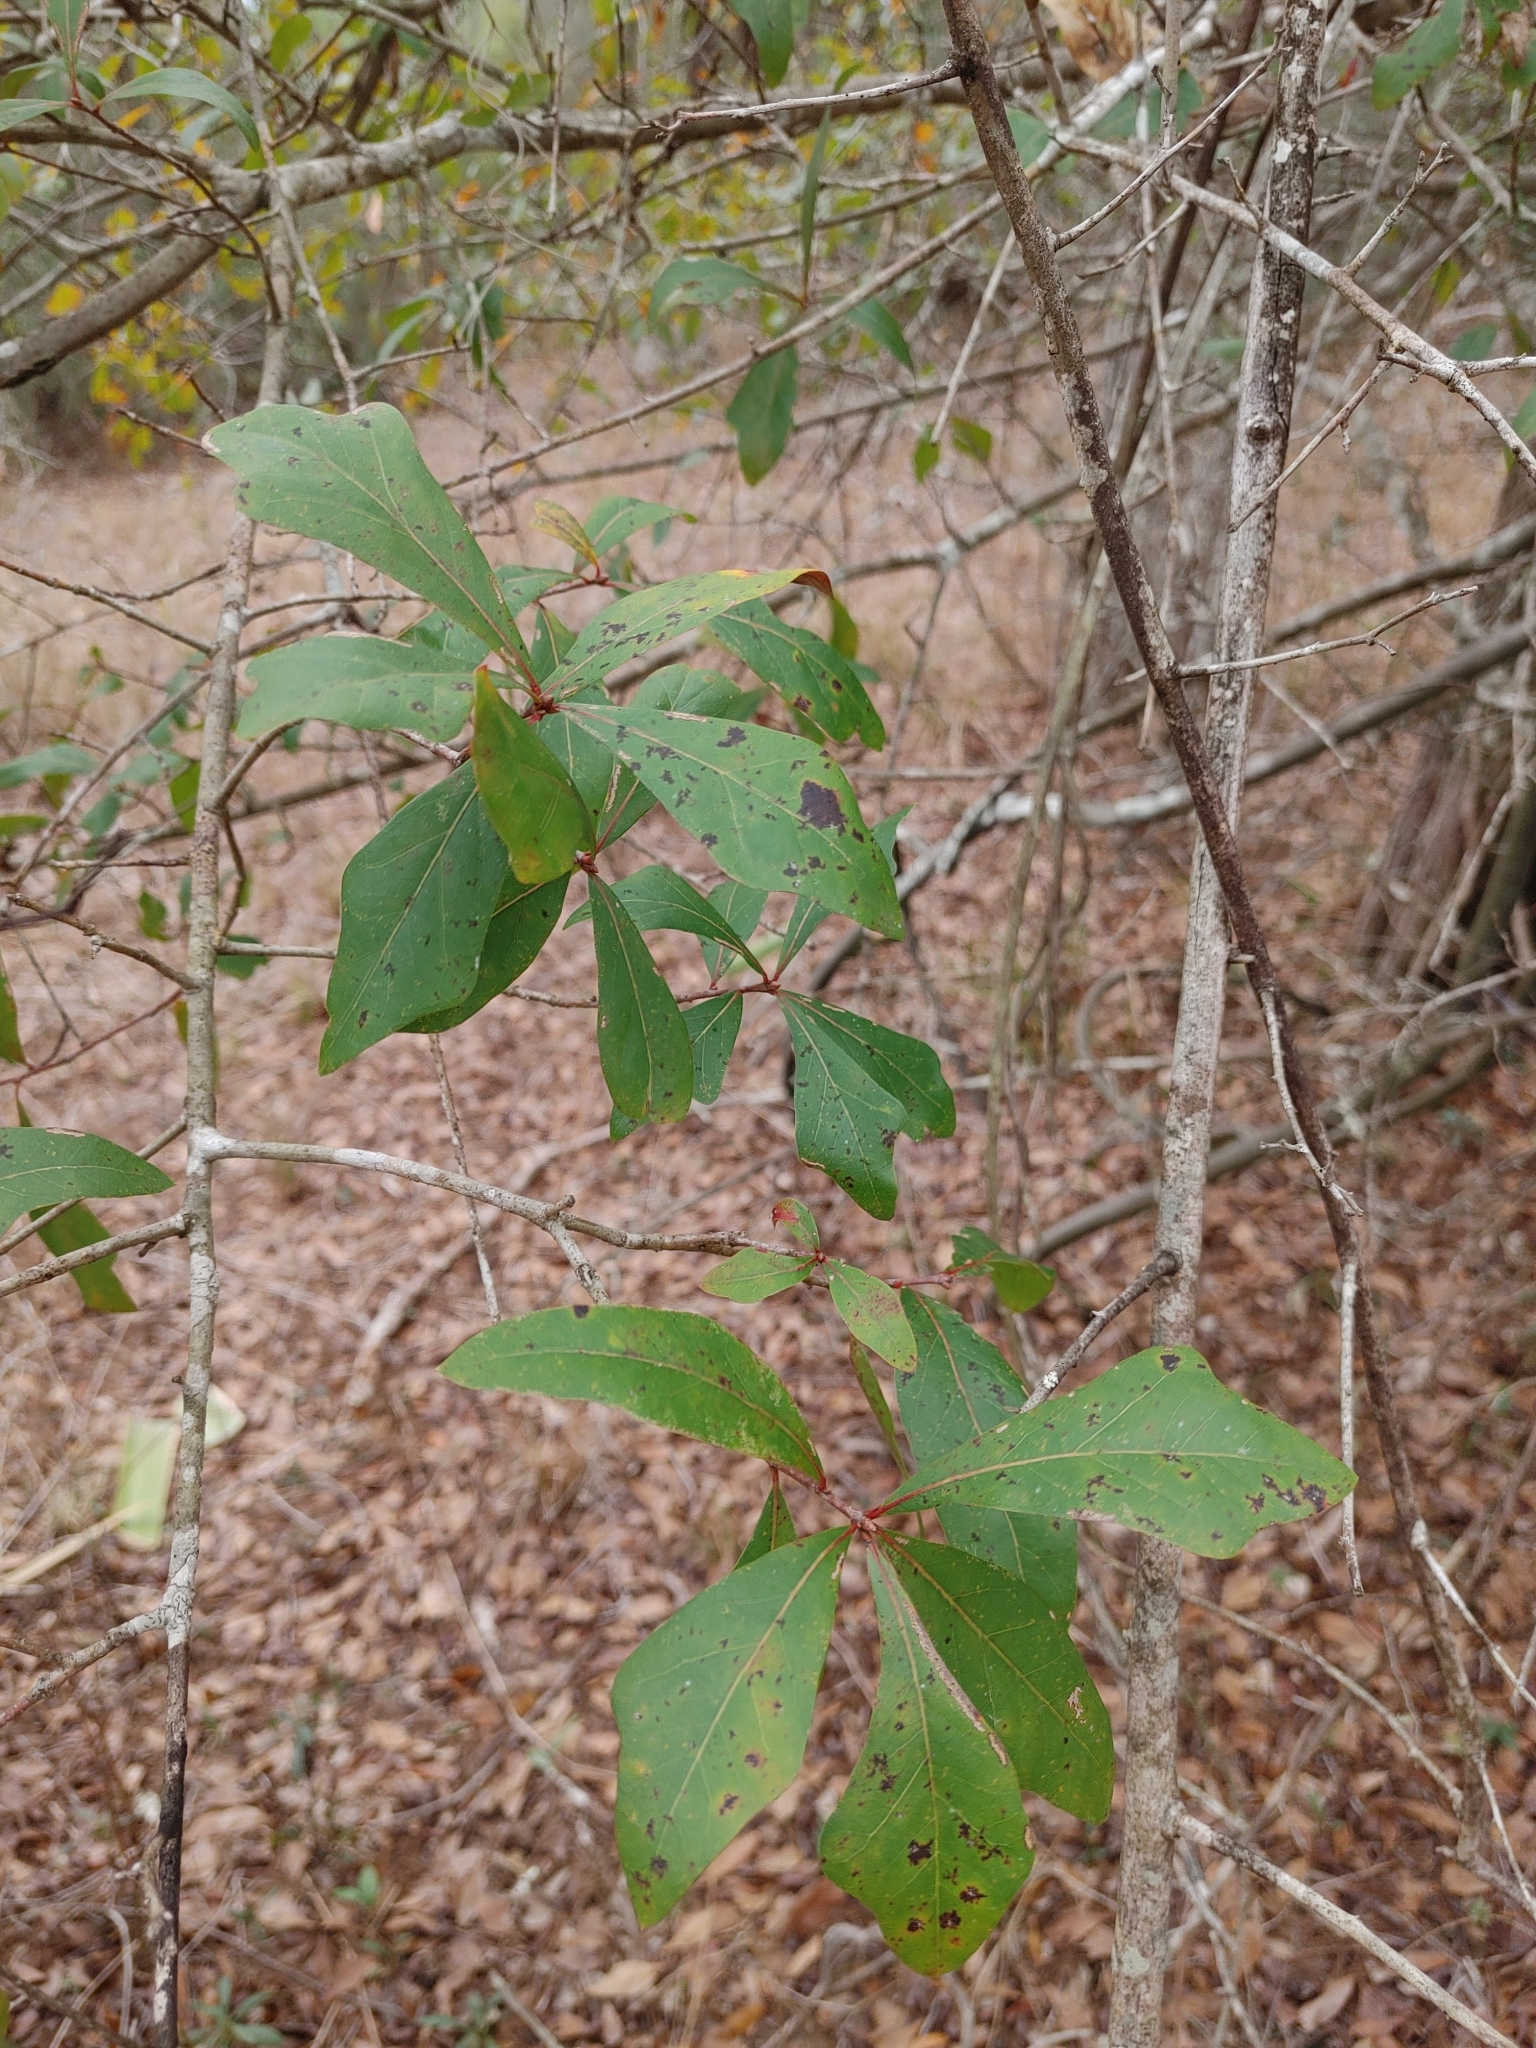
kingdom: Plantae
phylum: Tracheophyta
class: Magnoliopsida
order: Fagales
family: Fagaceae
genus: Quercus
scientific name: Quercus laurifolia
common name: Swamp laurel oak
